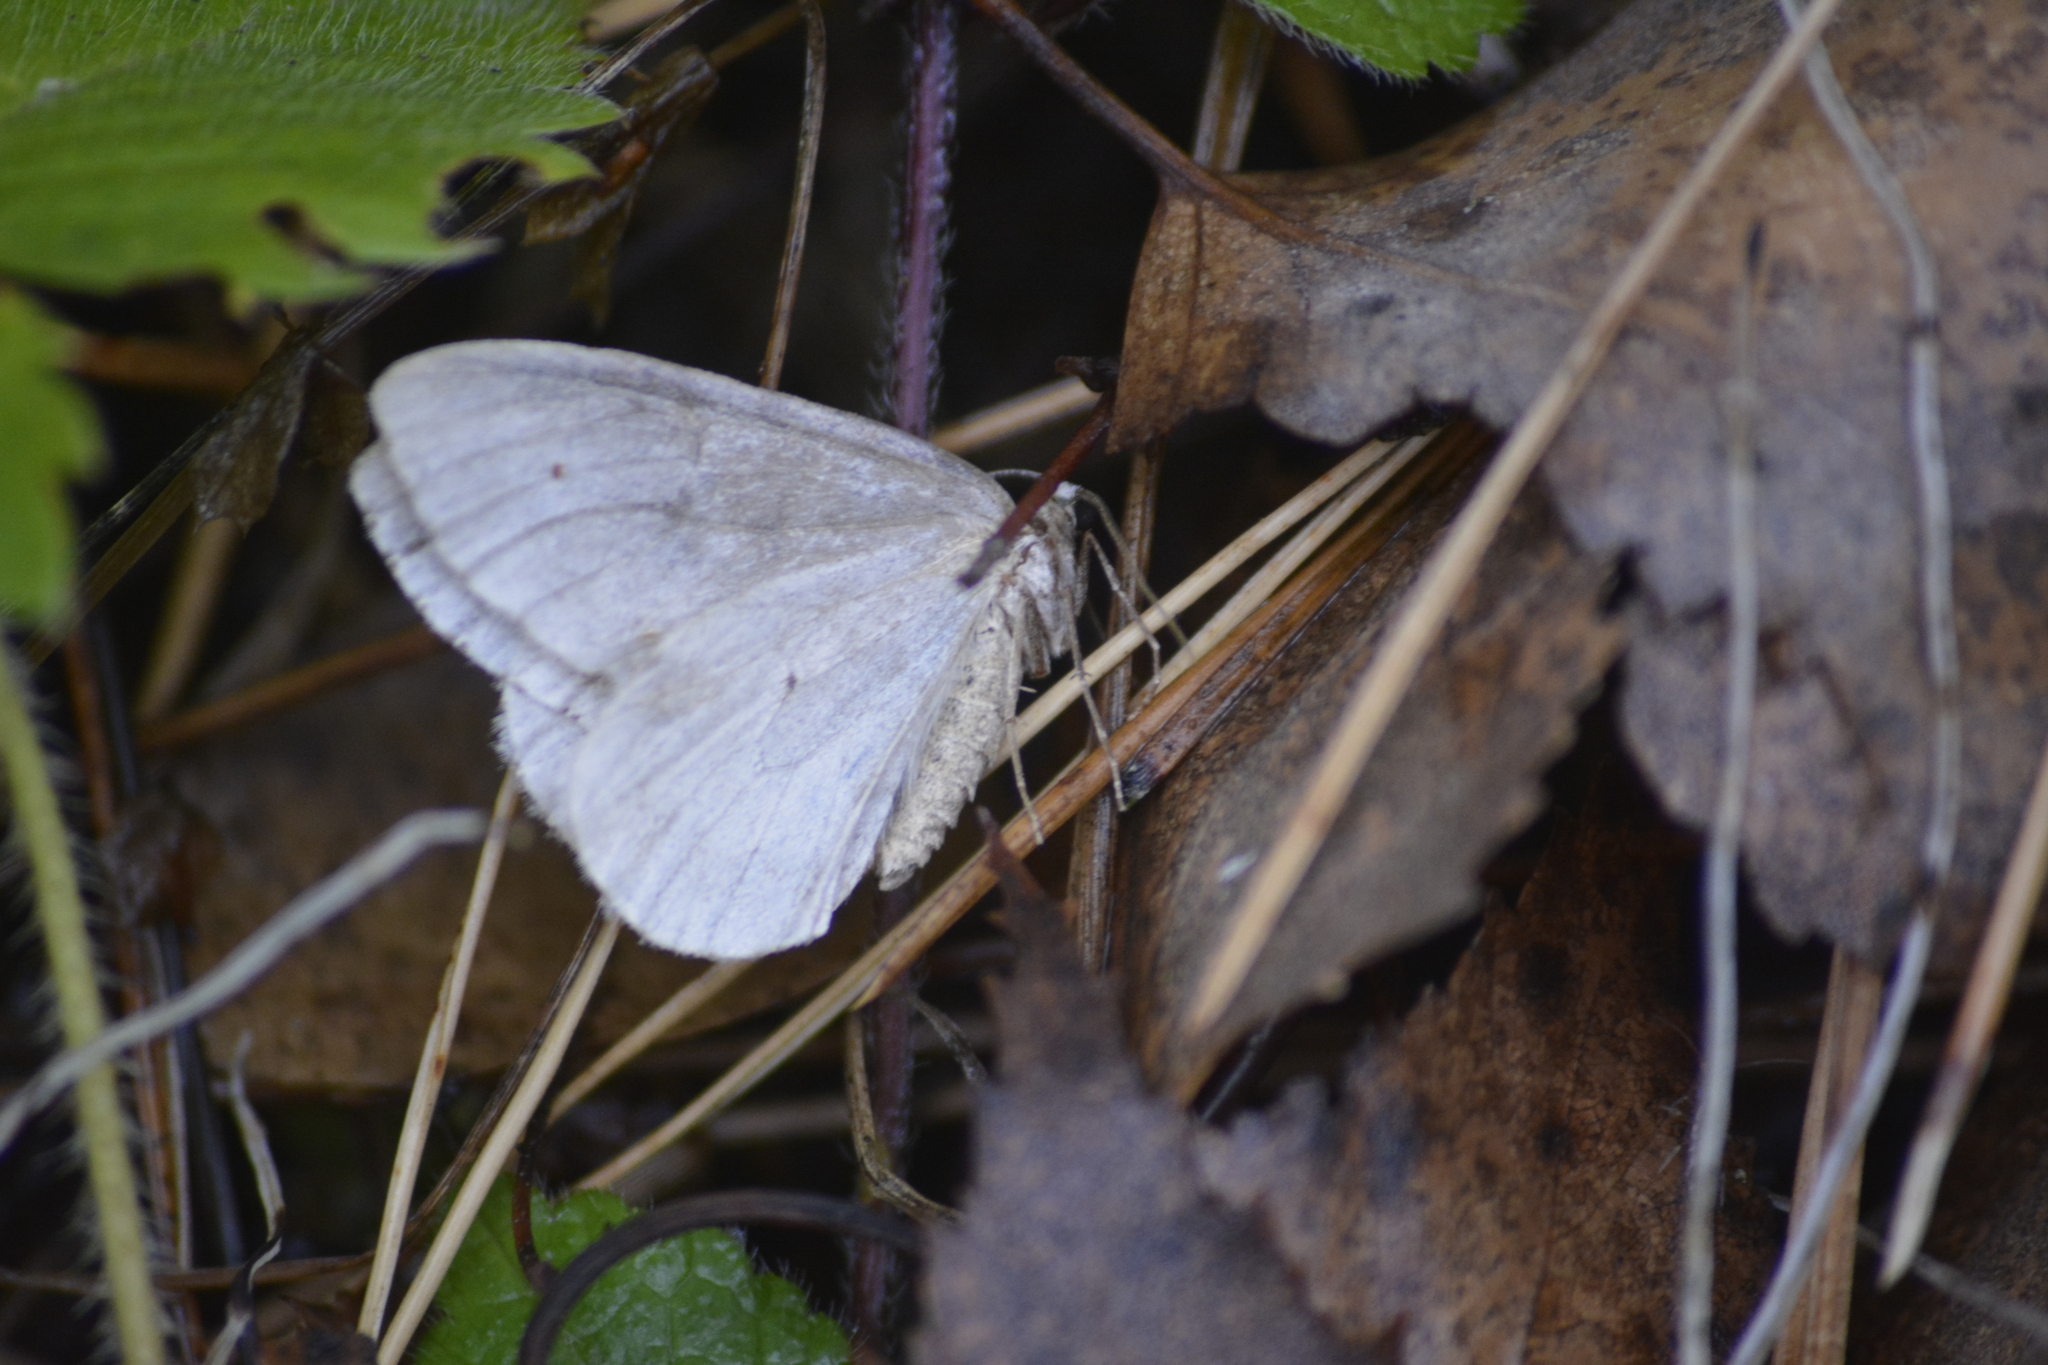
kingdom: Animalia
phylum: Arthropoda
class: Insecta
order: Lepidoptera
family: Geometridae
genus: Epirrita
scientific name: Epirrita autumnata
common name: Autumnal moth
